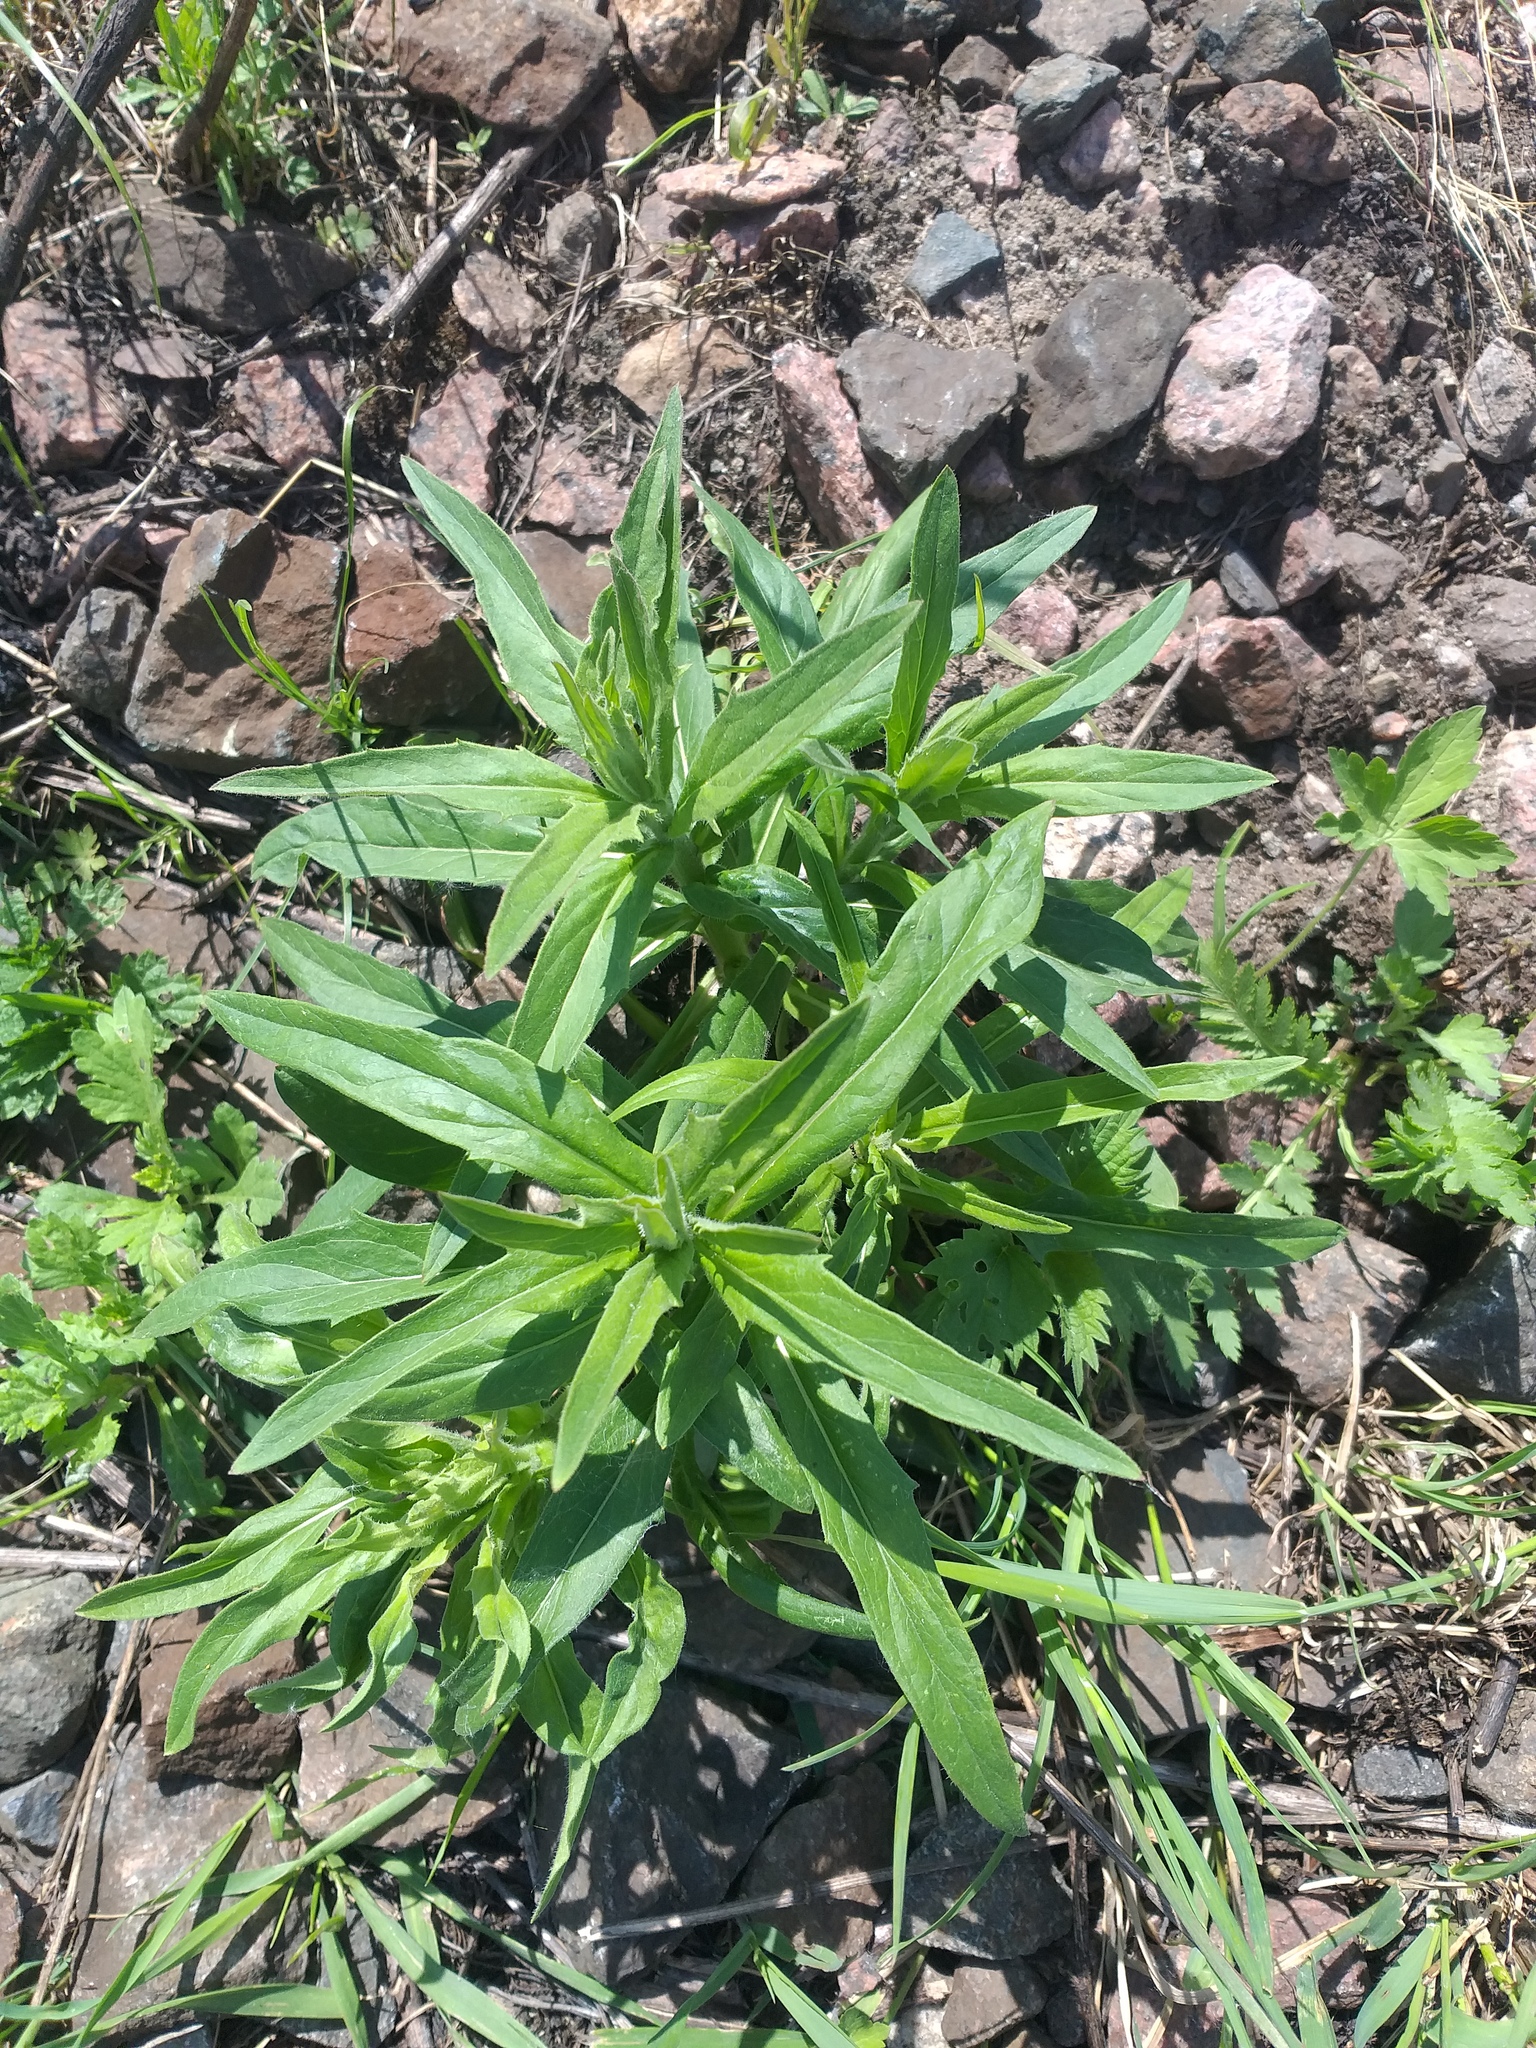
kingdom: Plantae
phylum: Tracheophyta
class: Magnoliopsida
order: Asterales
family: Asteraceae
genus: Hieracium
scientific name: Hieracium umbellatum
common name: Northern hawkweed
